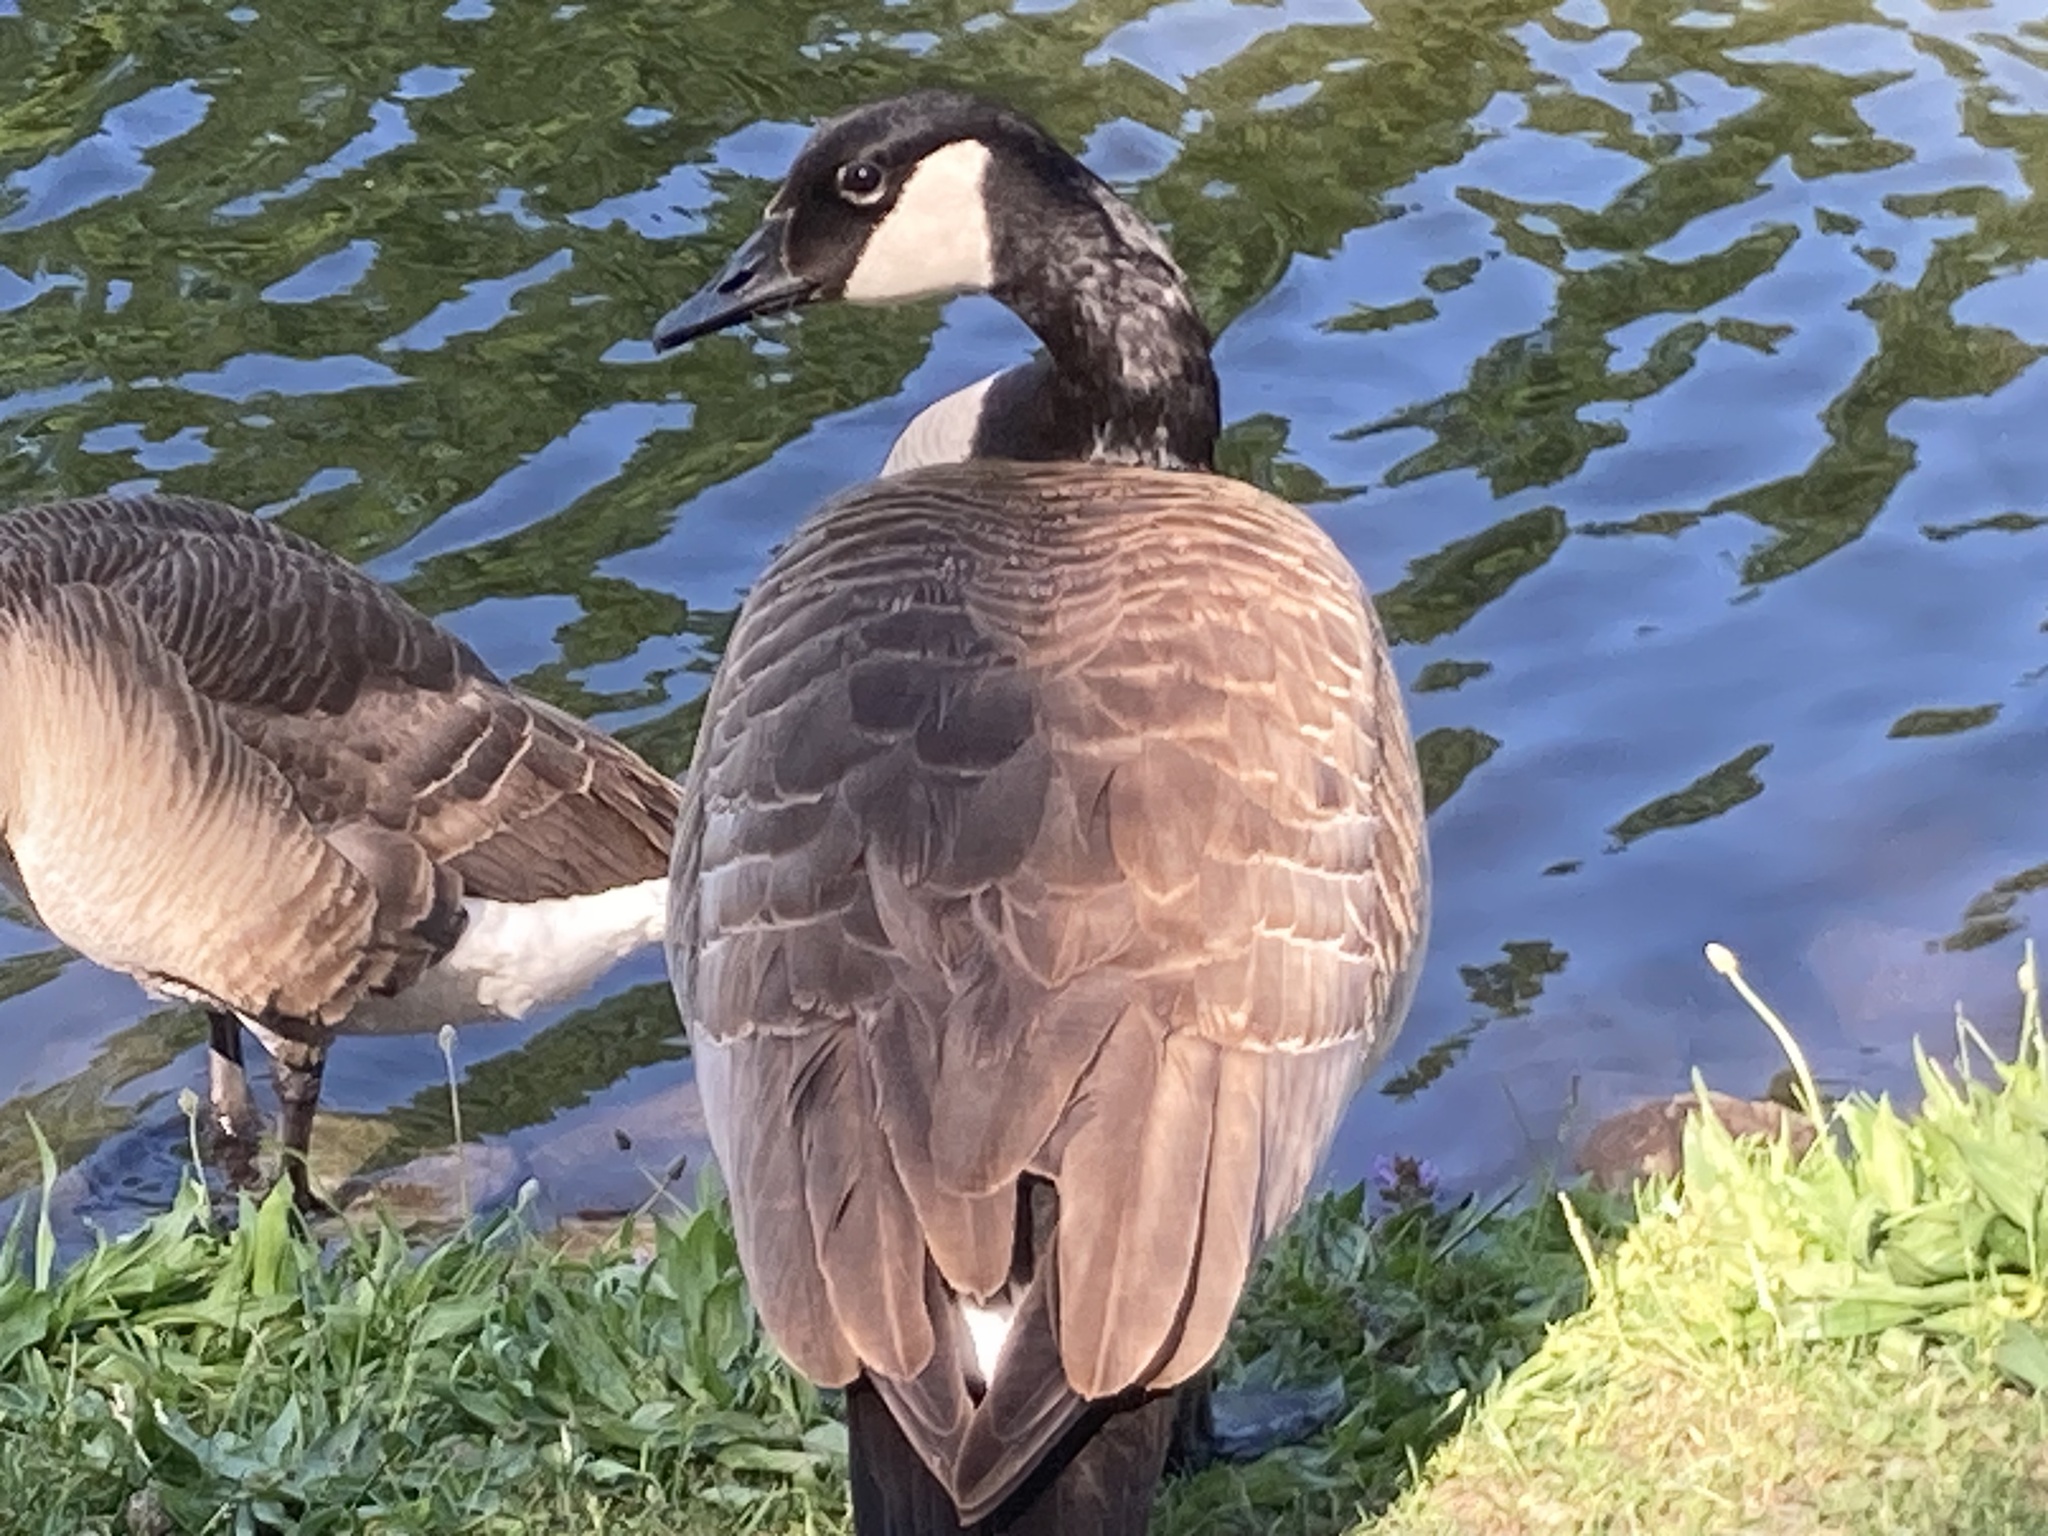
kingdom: Animalia
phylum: Chordata
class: Aves
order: Anseriformes
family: Anatidae
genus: Branta
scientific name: Branta canadensis
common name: Canada goose
